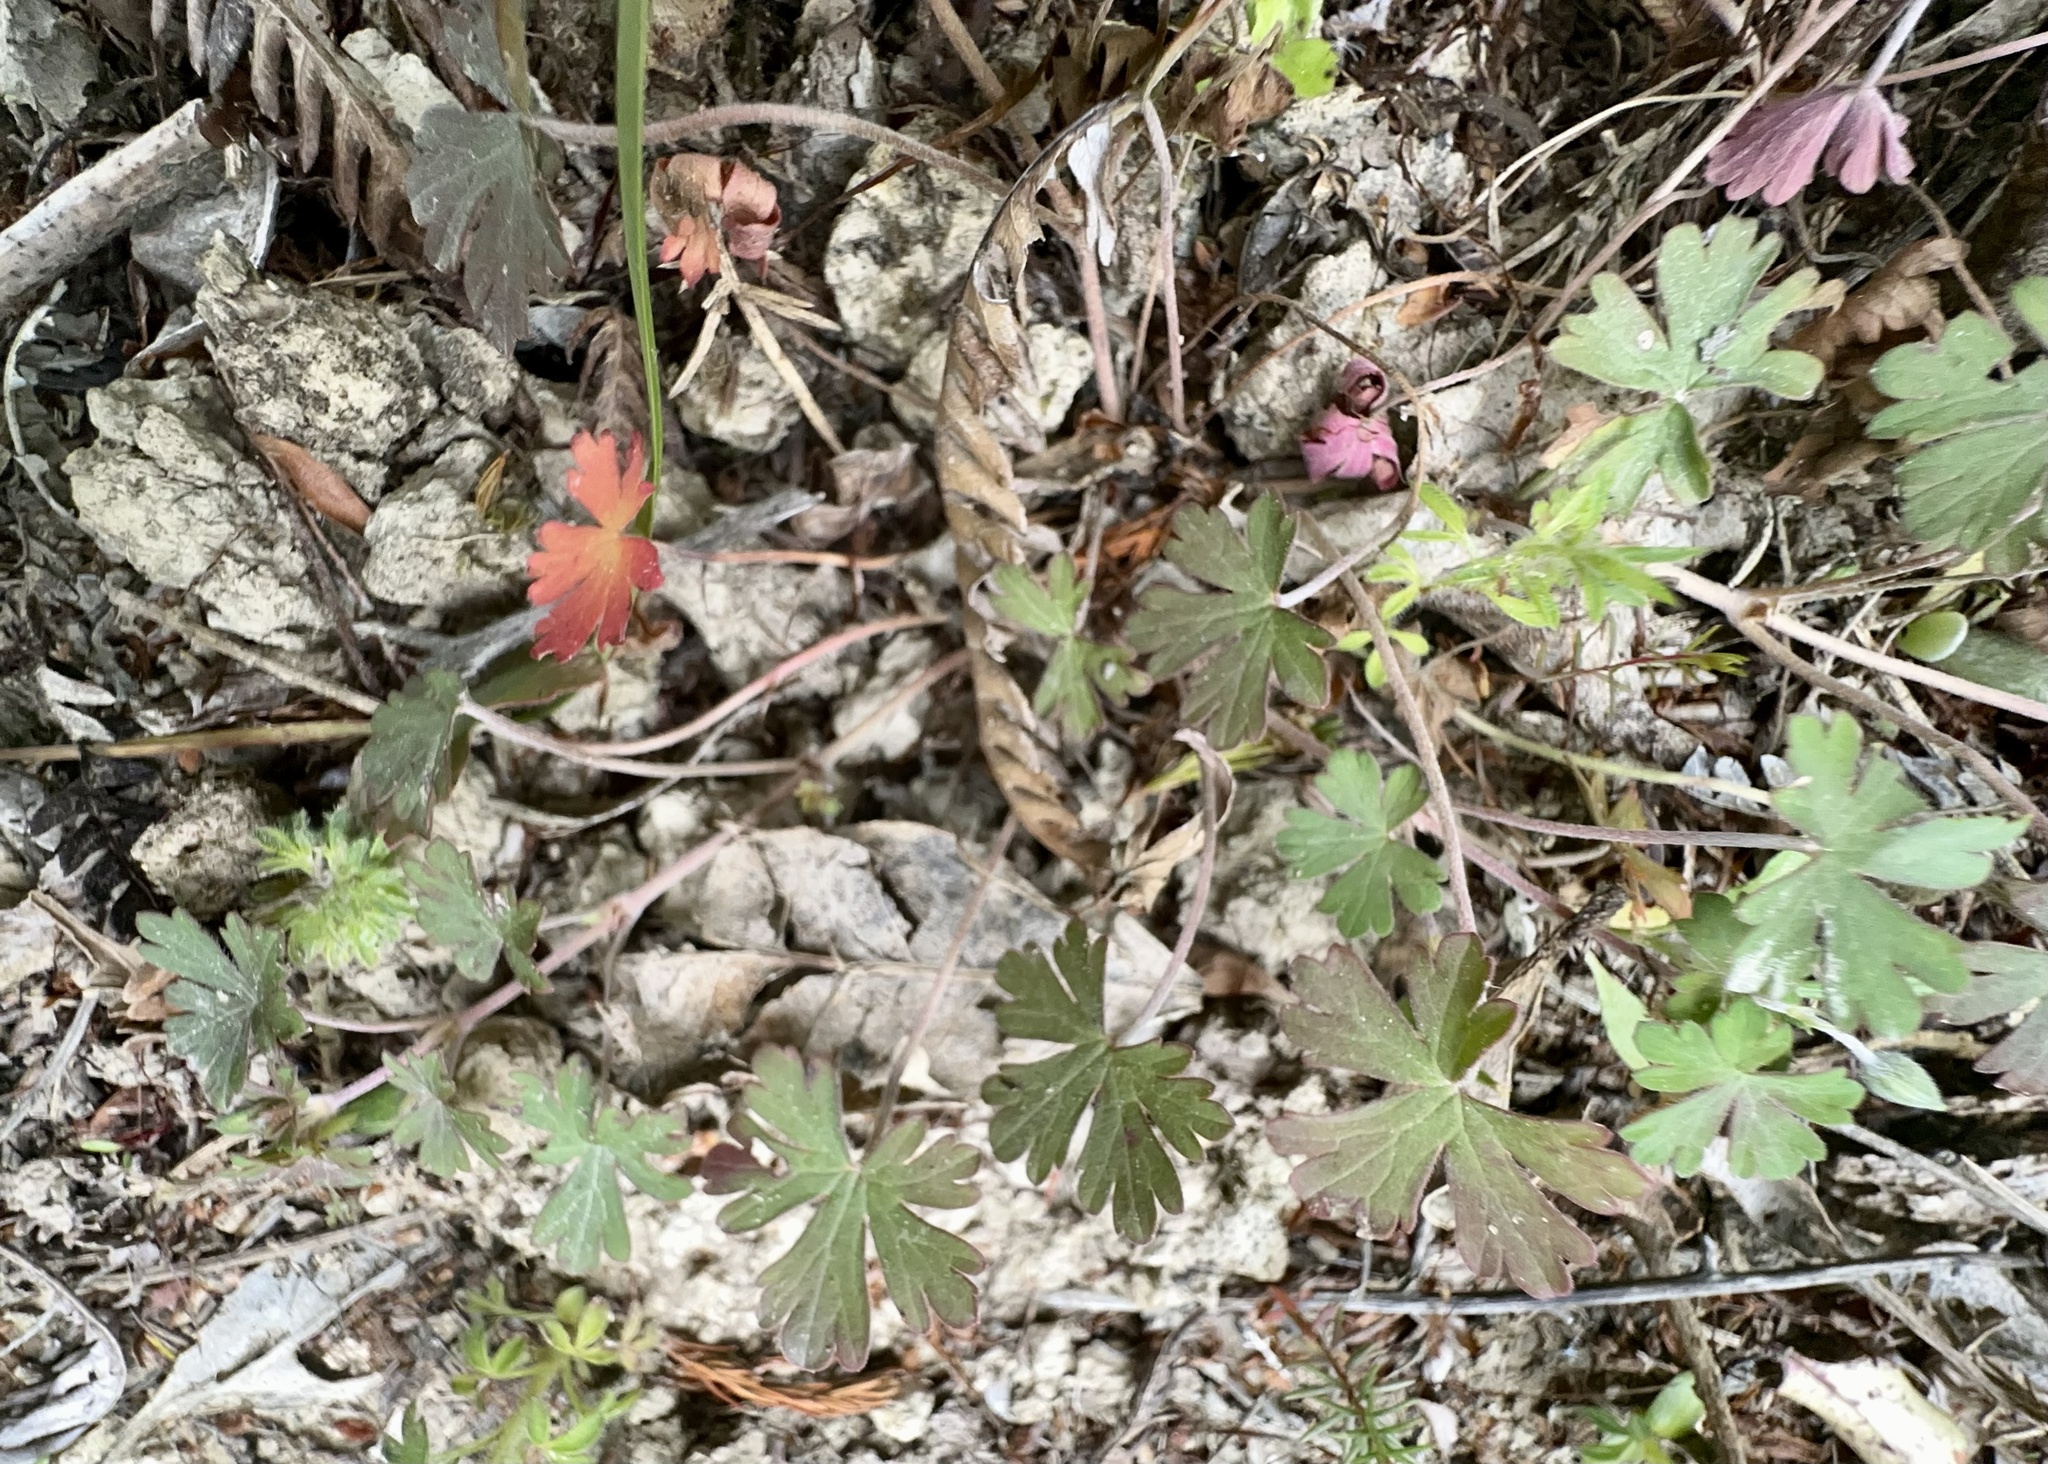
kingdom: Plantae
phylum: Tracheophyta
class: Magnoliopsida
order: Geraniales
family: Geraniaceae
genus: Geranium
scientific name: Geranium potentilloides
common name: Cinquefoil geranium
